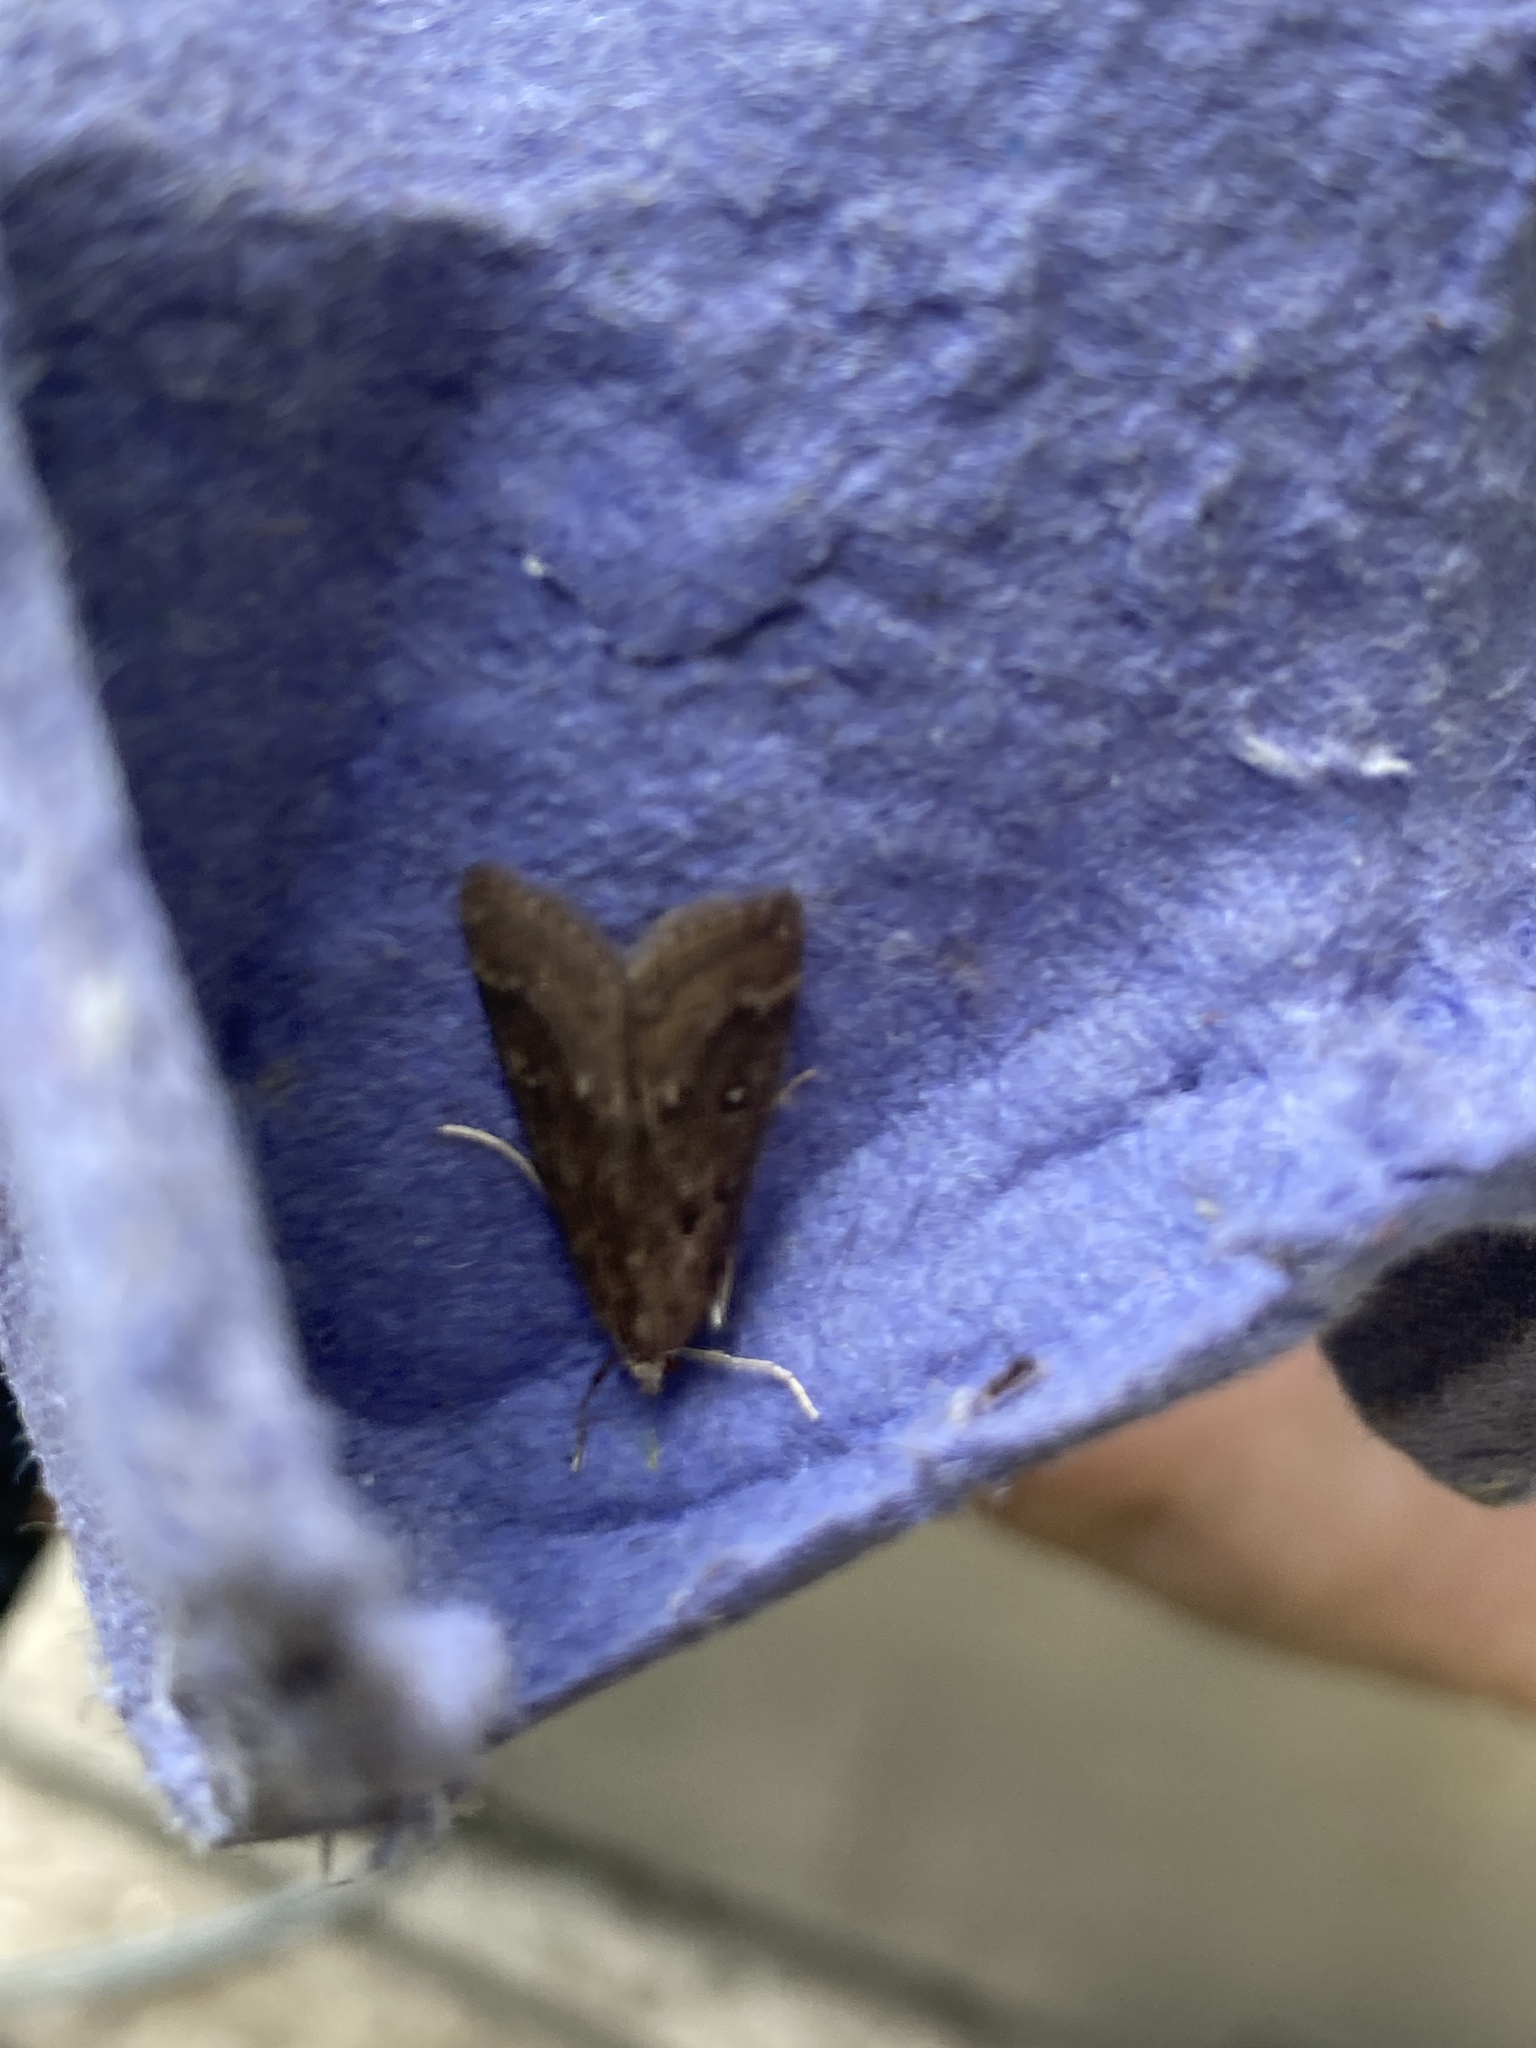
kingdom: Animalia
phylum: Arthropoda
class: Insecta
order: Lepidoptera
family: Crambidae
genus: Parapoynx
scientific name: Parapoynx stratiotata
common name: Ringed china-mark
